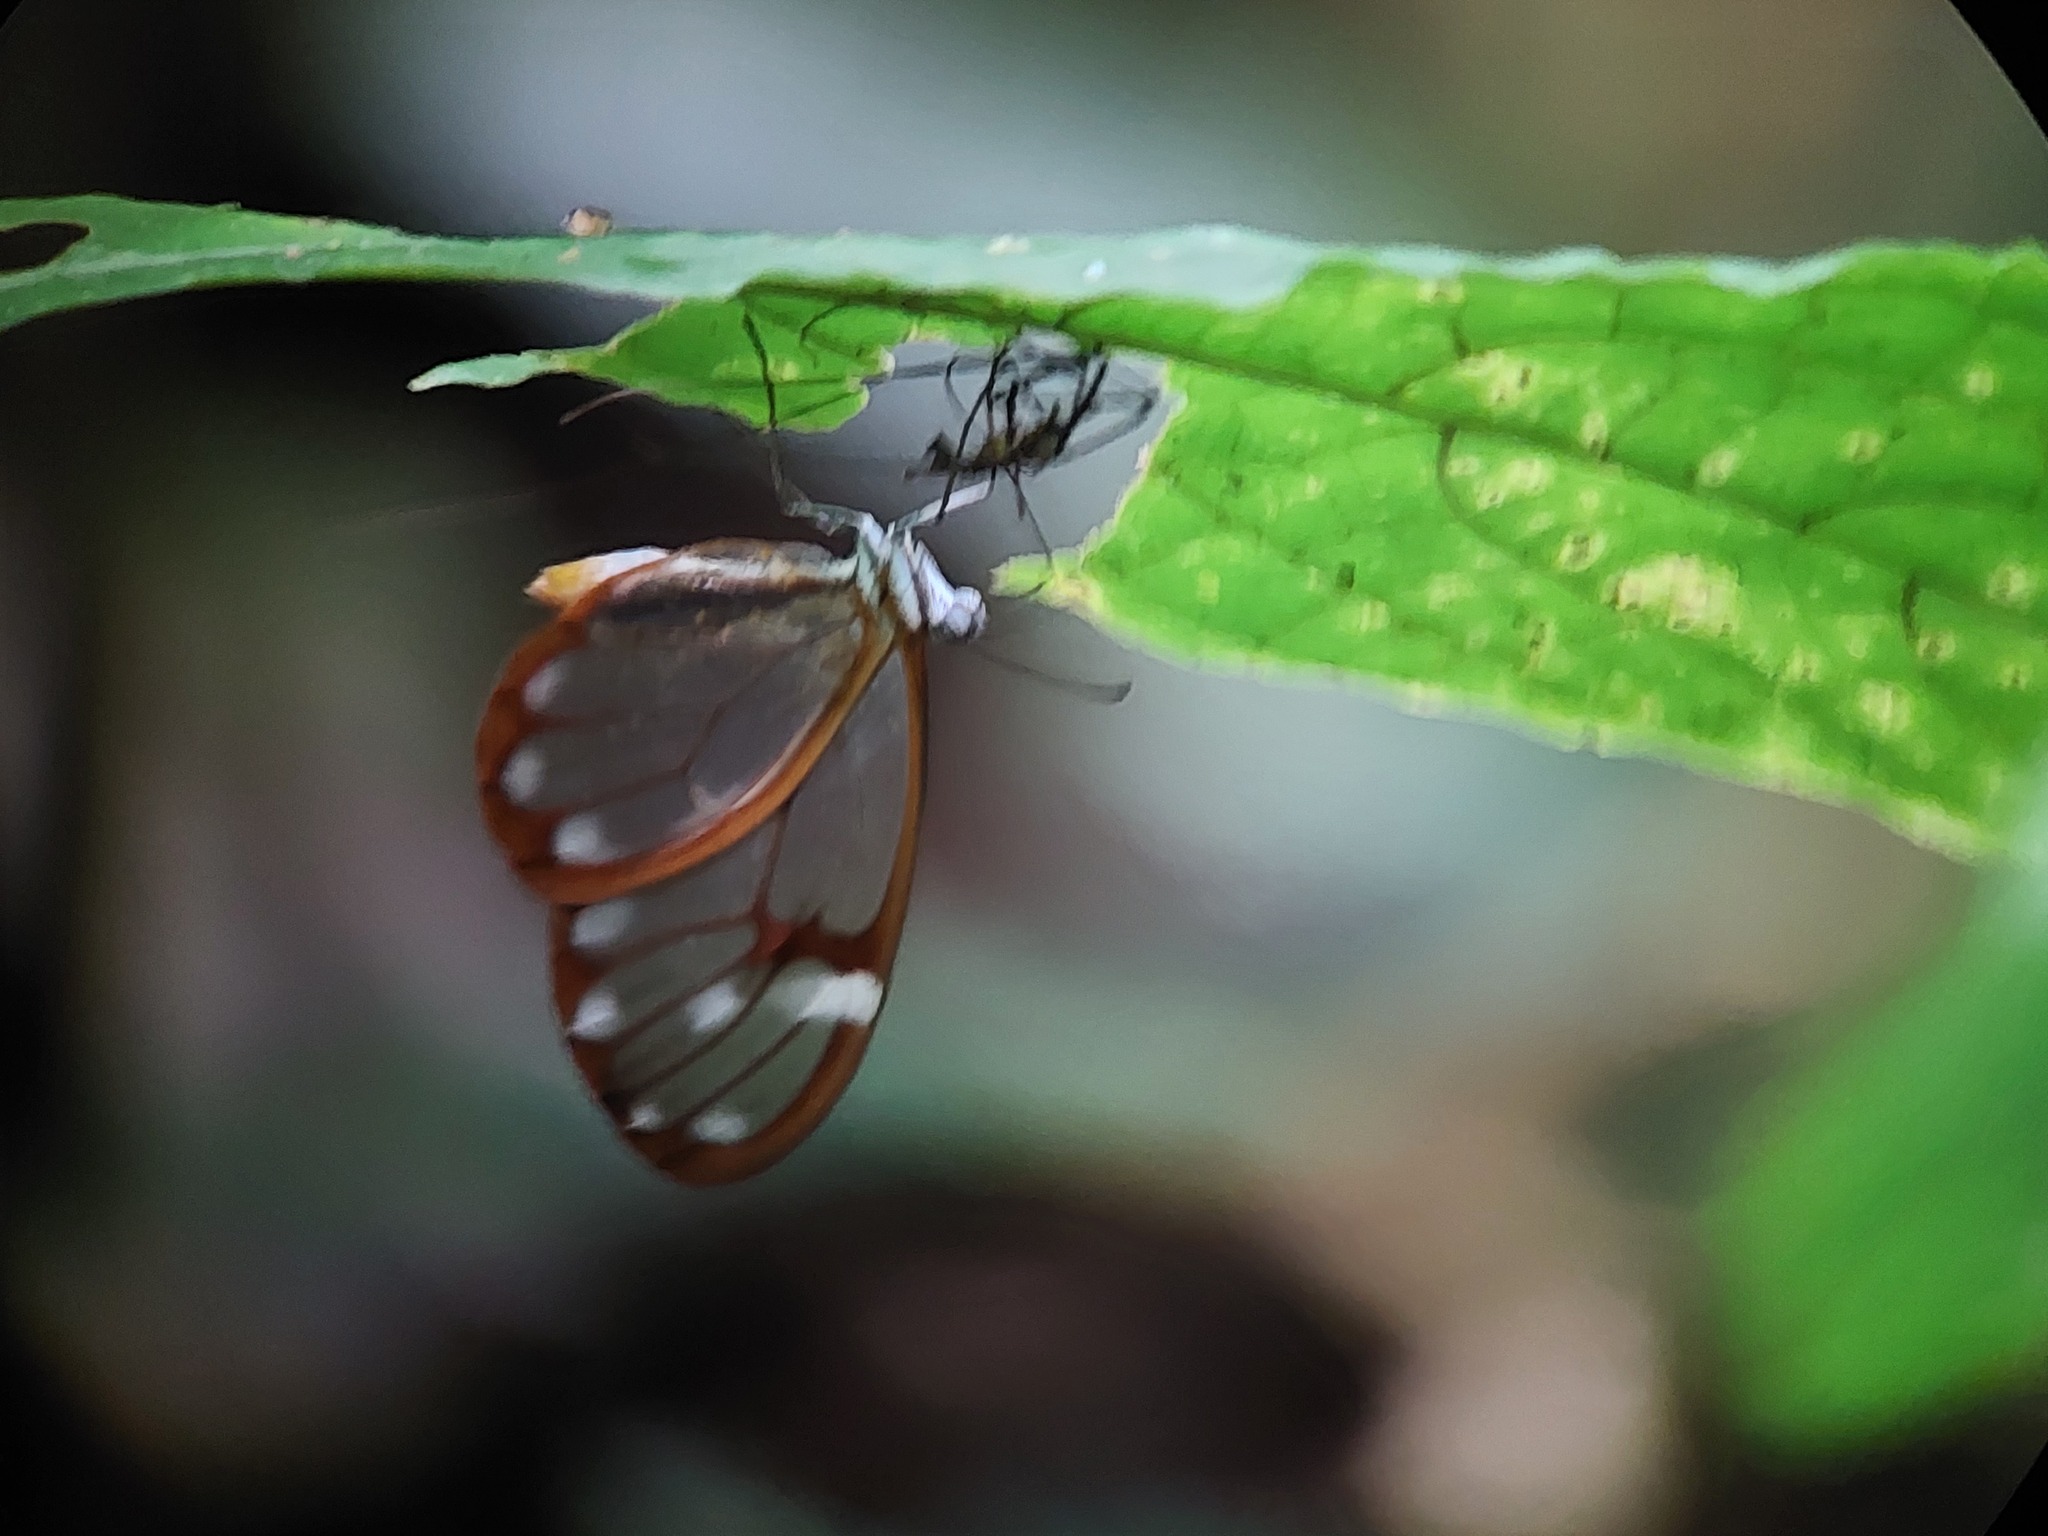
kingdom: Animalia
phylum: Arthropoda
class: Insecta
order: Lepidoptera
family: Nymphalidae
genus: Greta
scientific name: Greta annette
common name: White-spotted clearwing
